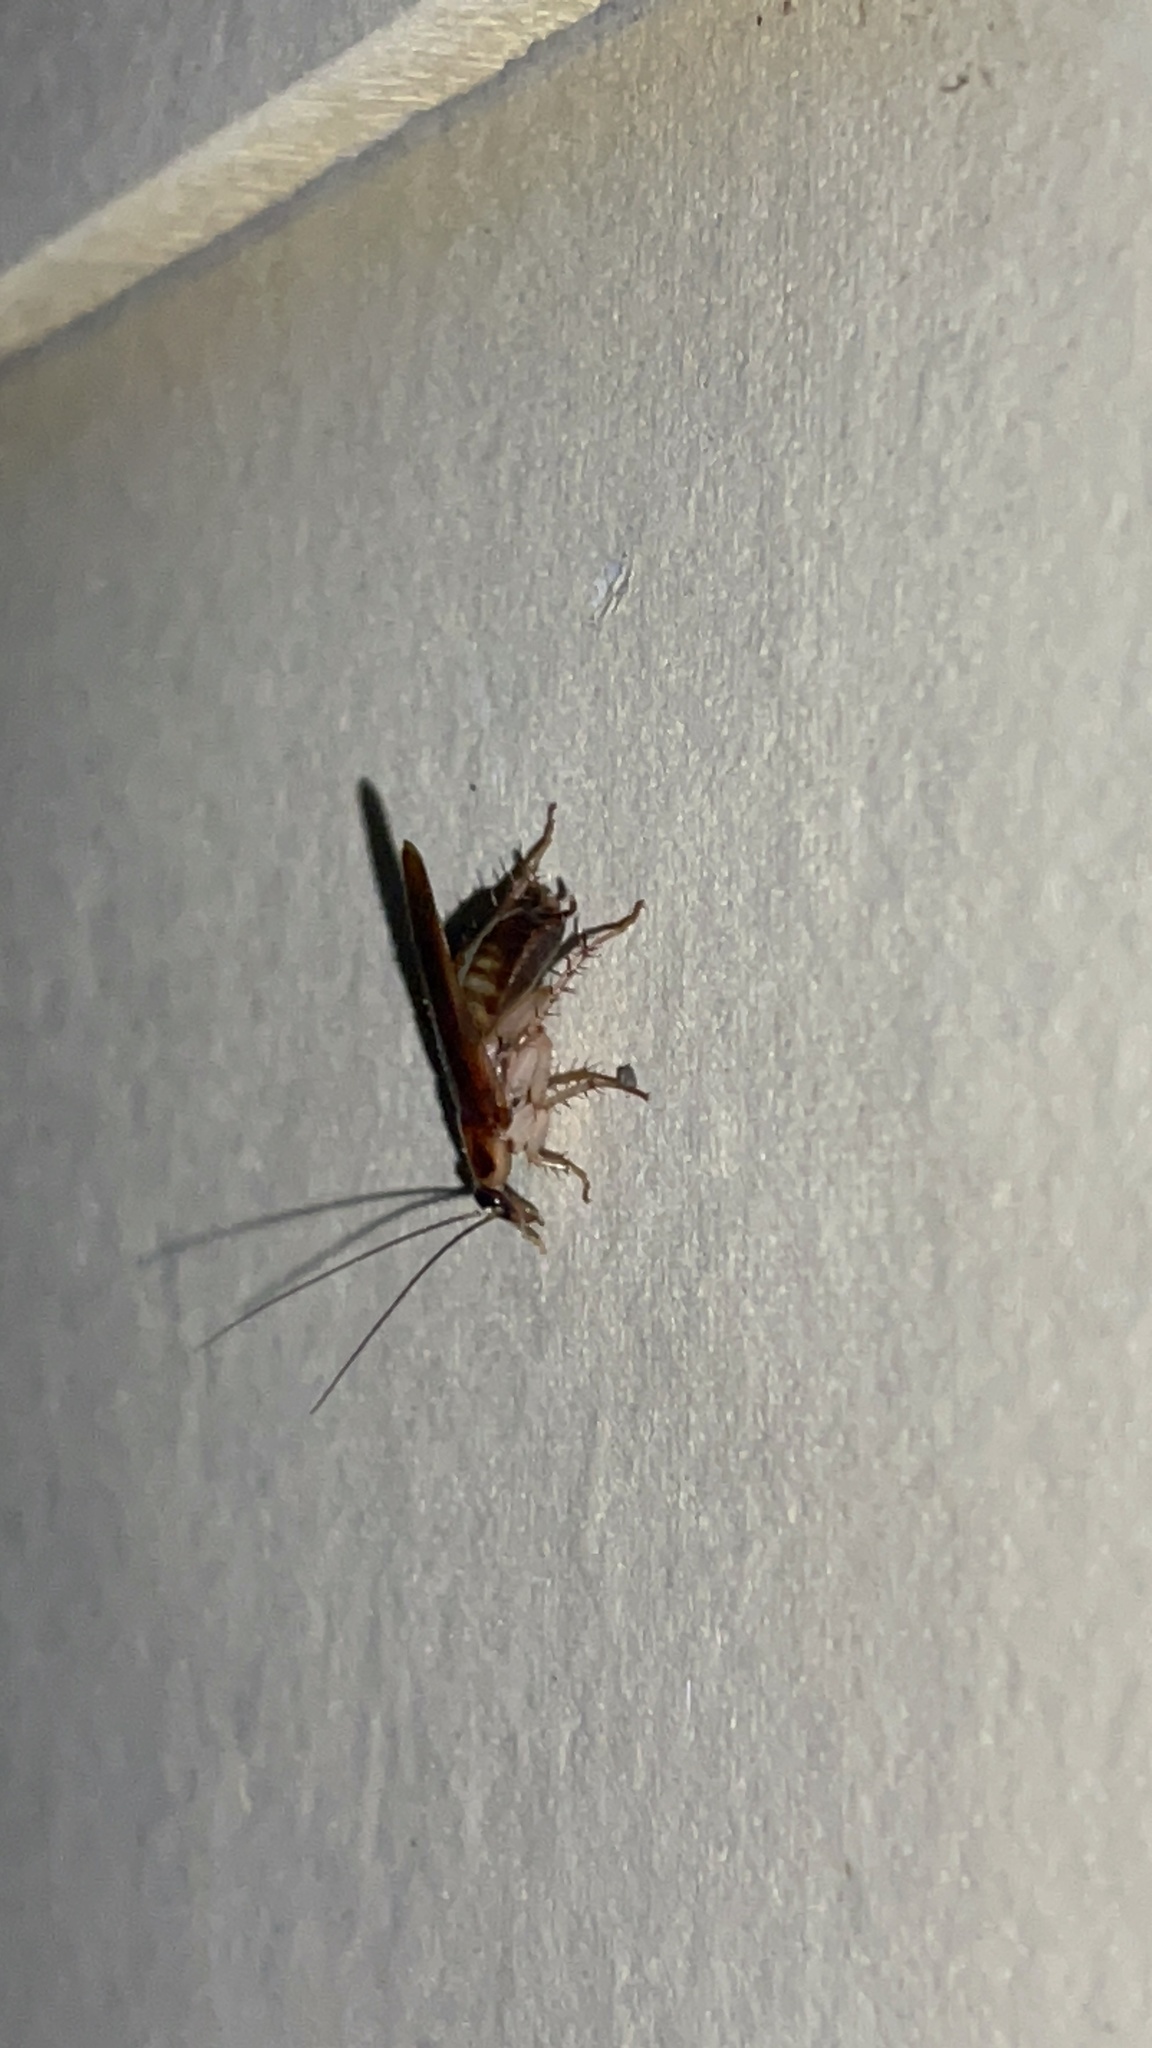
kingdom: Animalia
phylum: Arthropoda
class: Insecta
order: Blattodea
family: Ectobiidae
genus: Ischnoptera
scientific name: Ischnoptera bilunata
